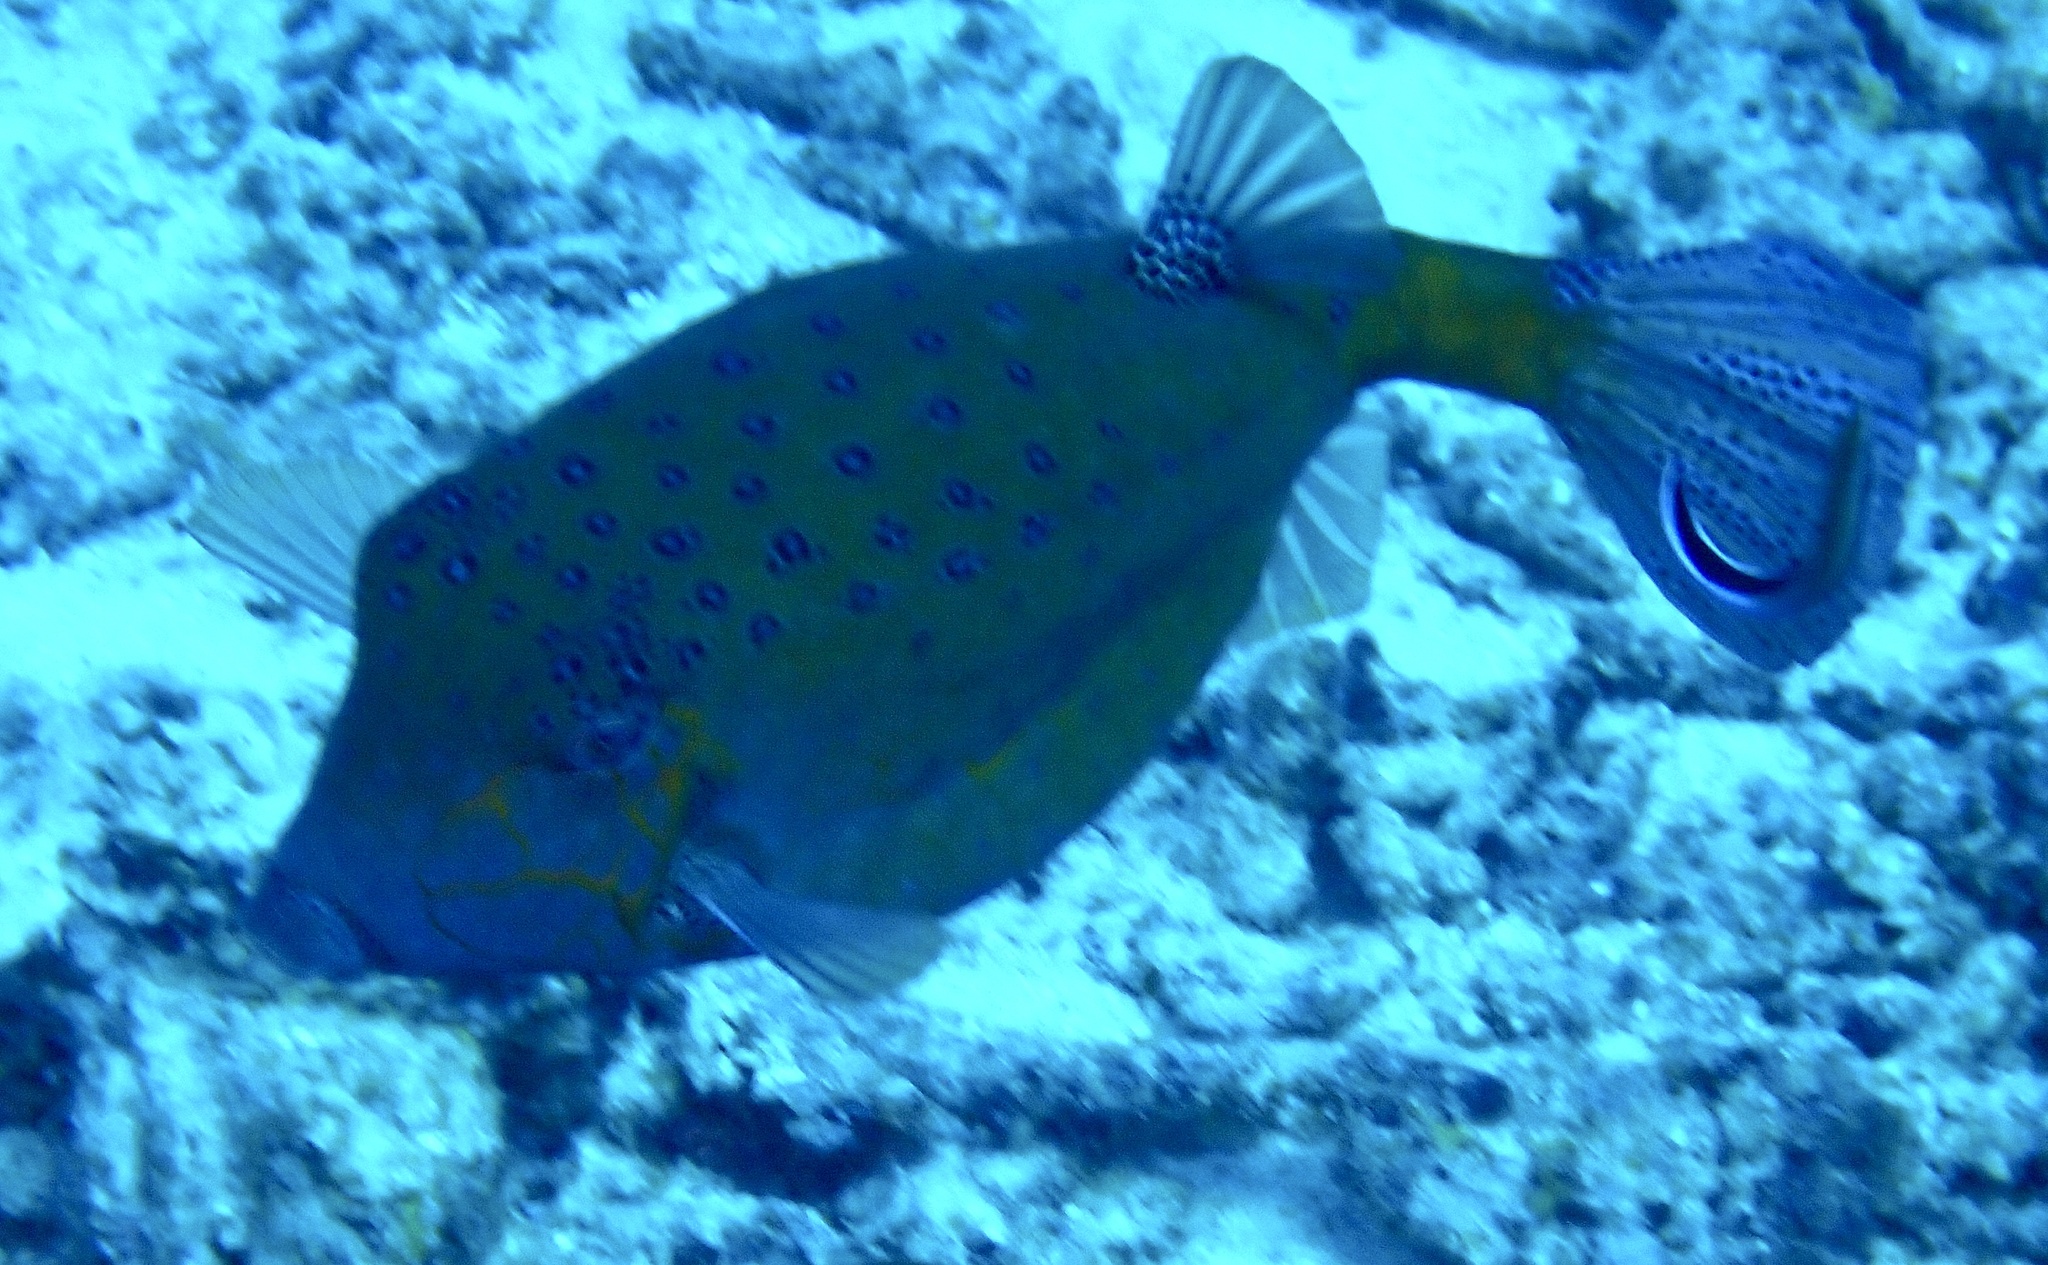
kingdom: Animalia
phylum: Chordata
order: Tetraodontiformes
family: Ostraciidae
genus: Ostracion
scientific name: Ostracion cubicus
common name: Cube trunkfish
